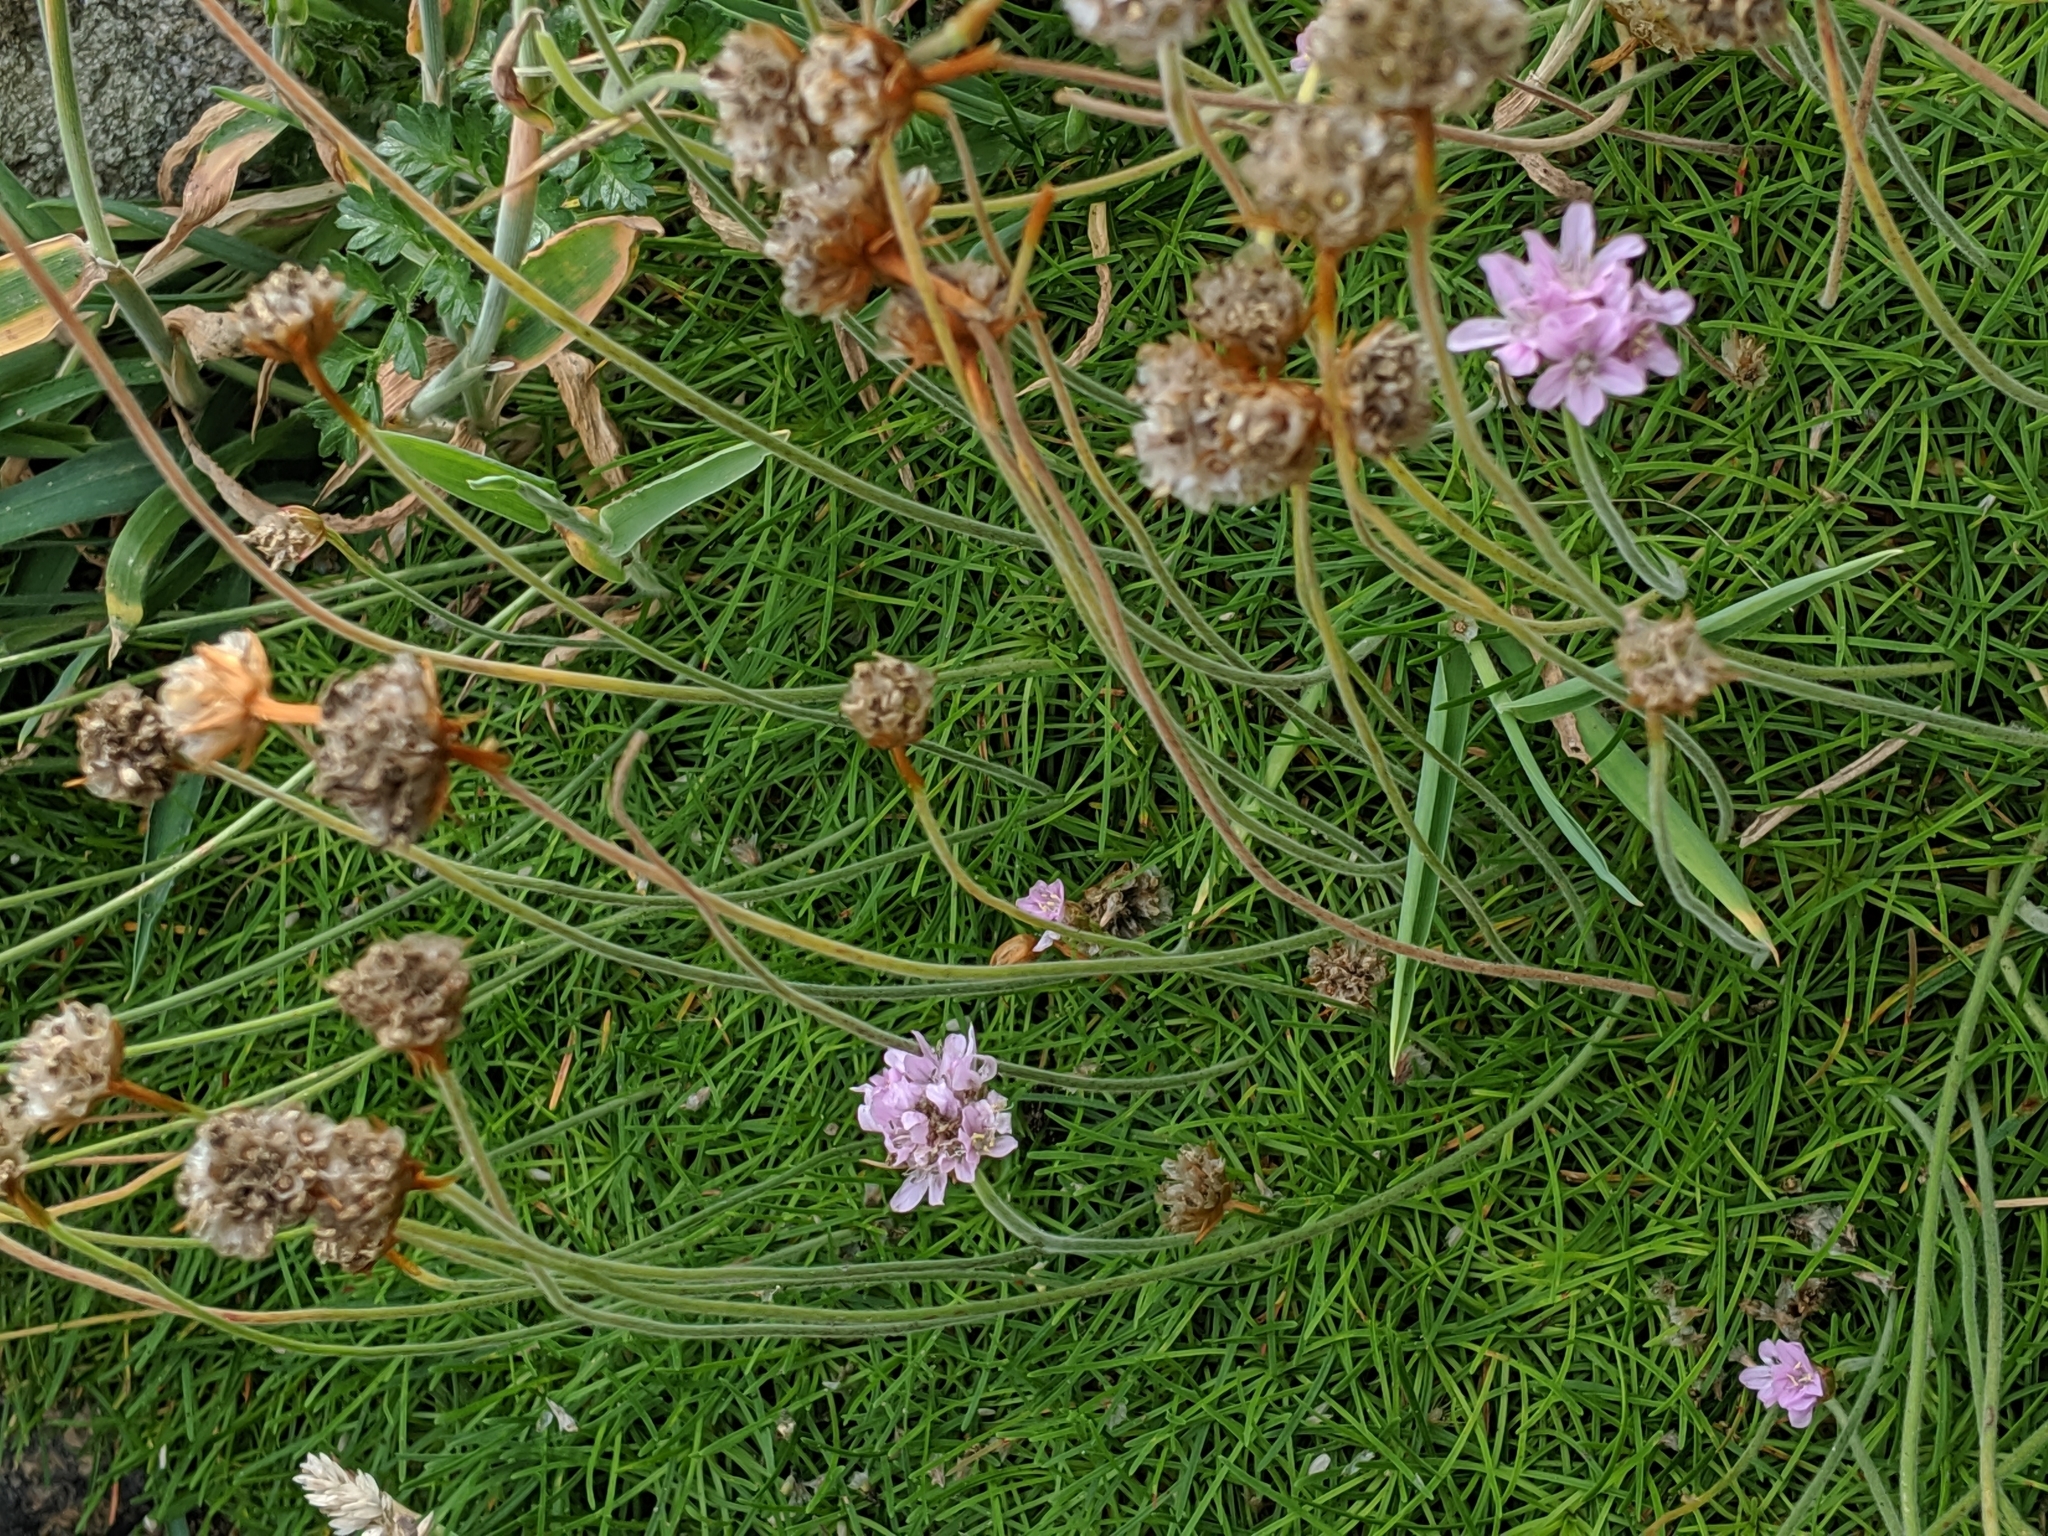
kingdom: Plantae
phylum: Tracheophyta
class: Magnoliopsida
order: Caryophyllales
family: Plumbaginaceae
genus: Armeria
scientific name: Armeria maritima
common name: Thrift
